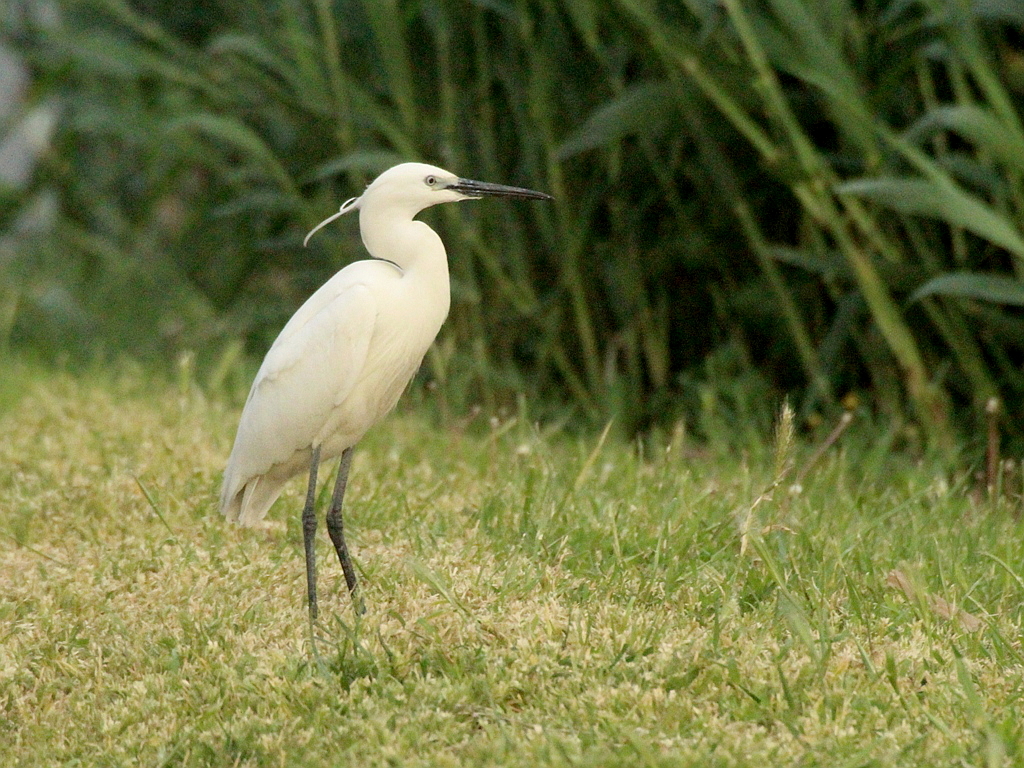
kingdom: Animalia
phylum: Chordata
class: Aves
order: Pelecaniformes
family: Ardeidae
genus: Egretta
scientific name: Egretta garzetta
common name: Little egret
